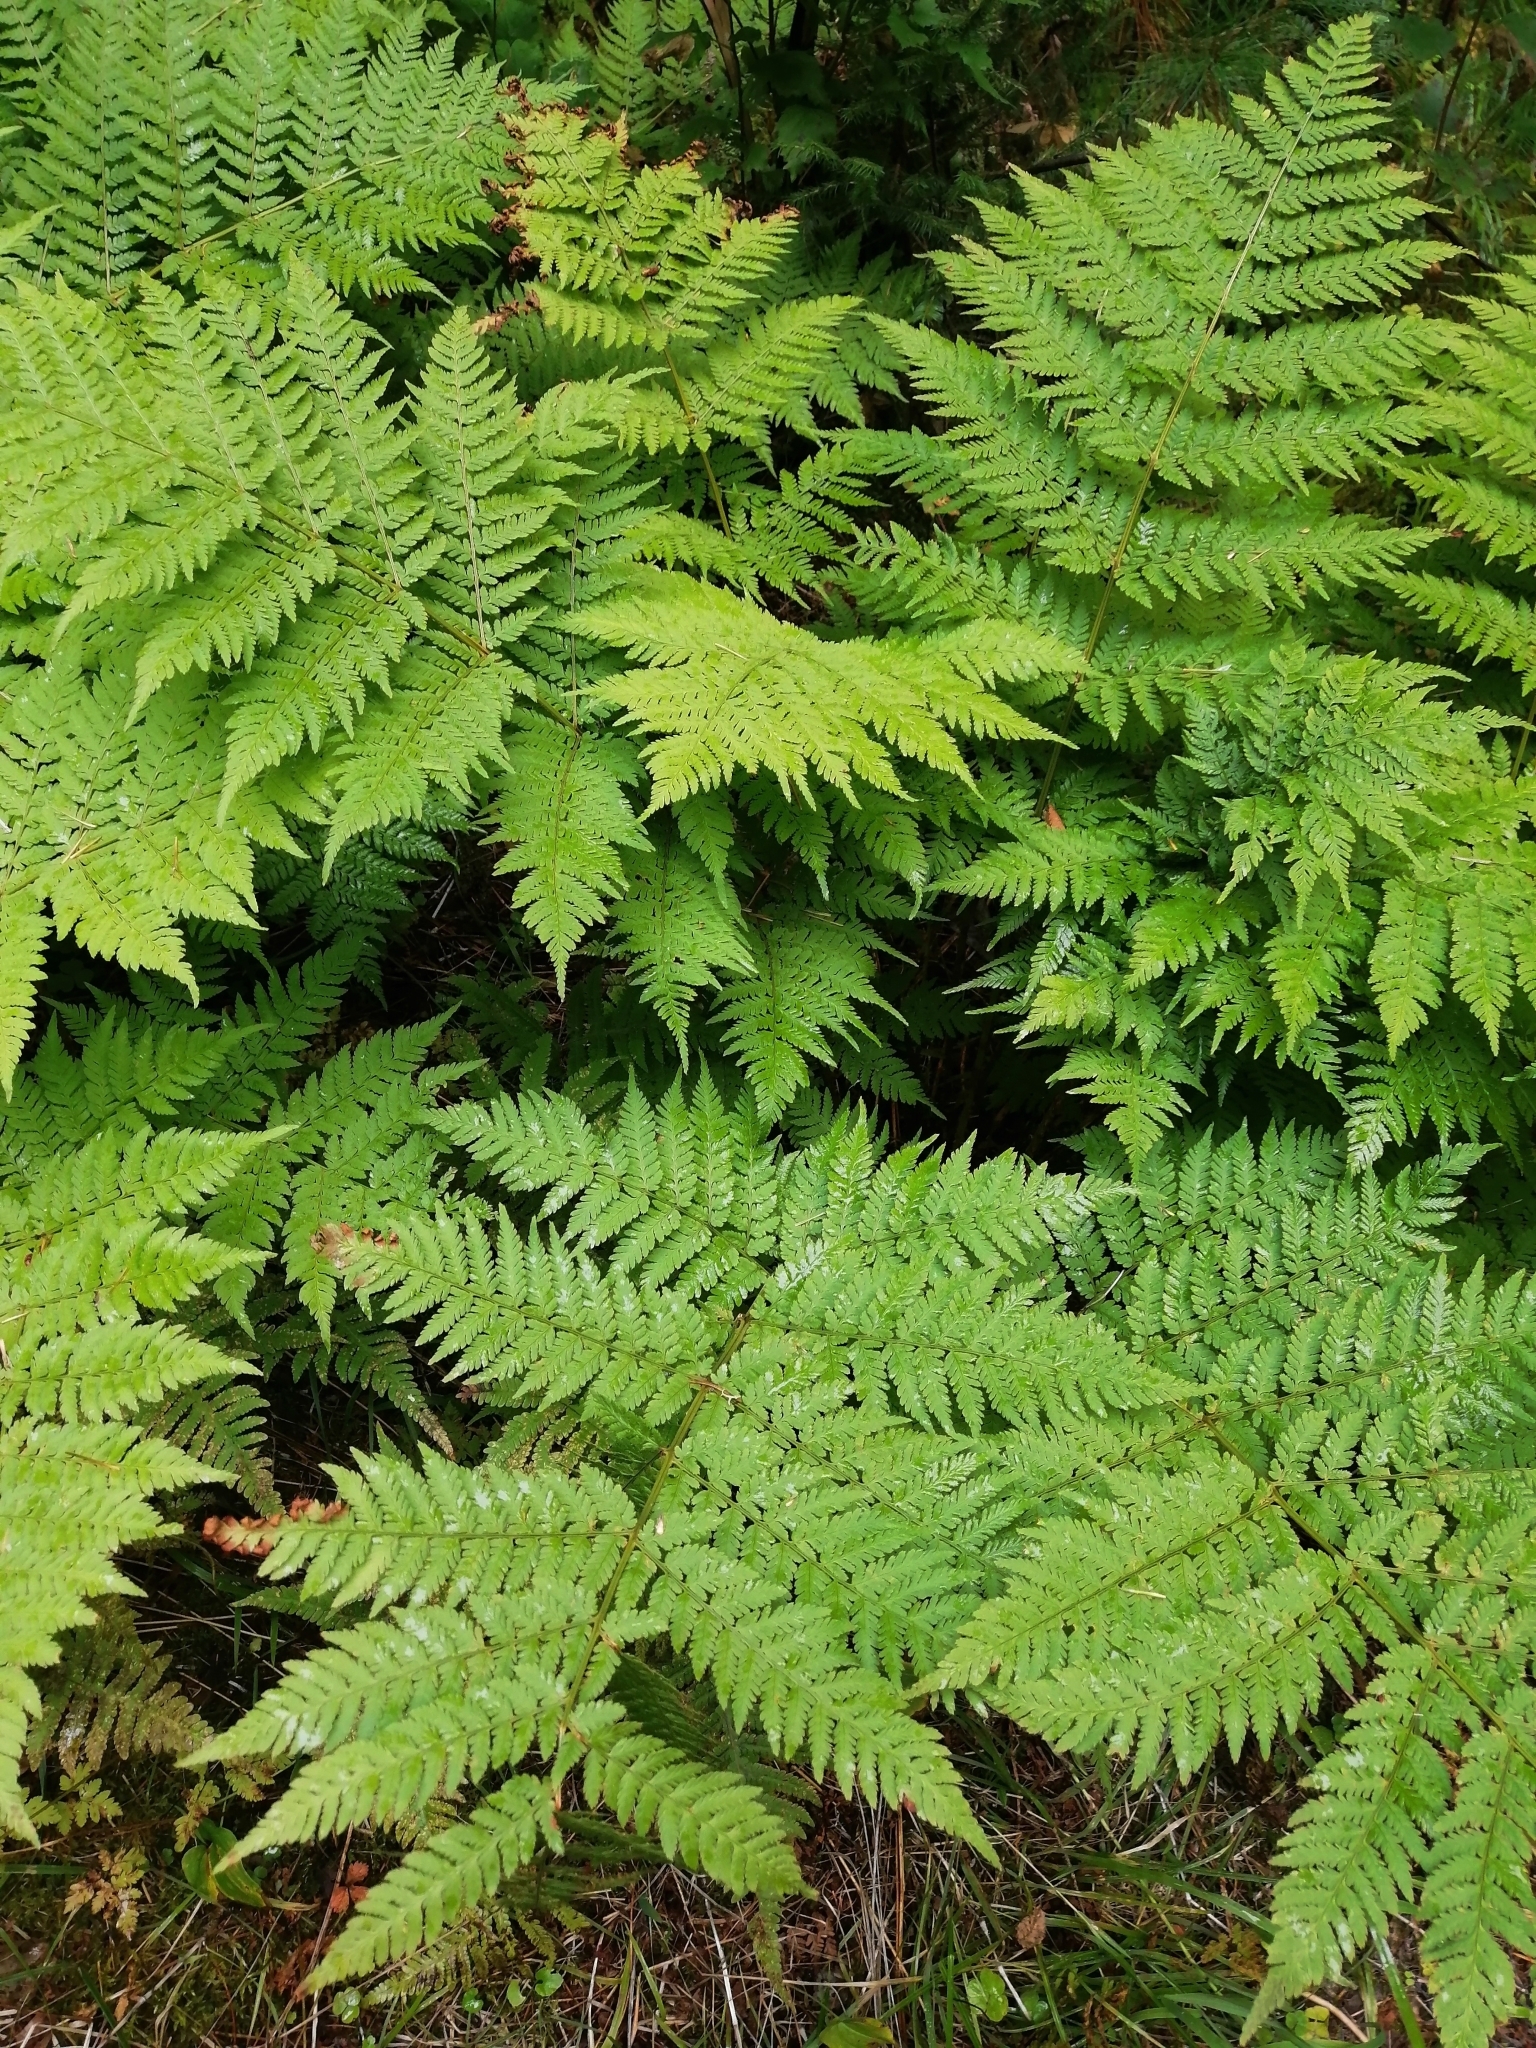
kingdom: Plantae
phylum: Tracheophyta
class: Polypodiopsida
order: Polypodiales
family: Dryopteridaceae
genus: Dryopteris
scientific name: Dryopteris expansa
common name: Northern buckler fern
